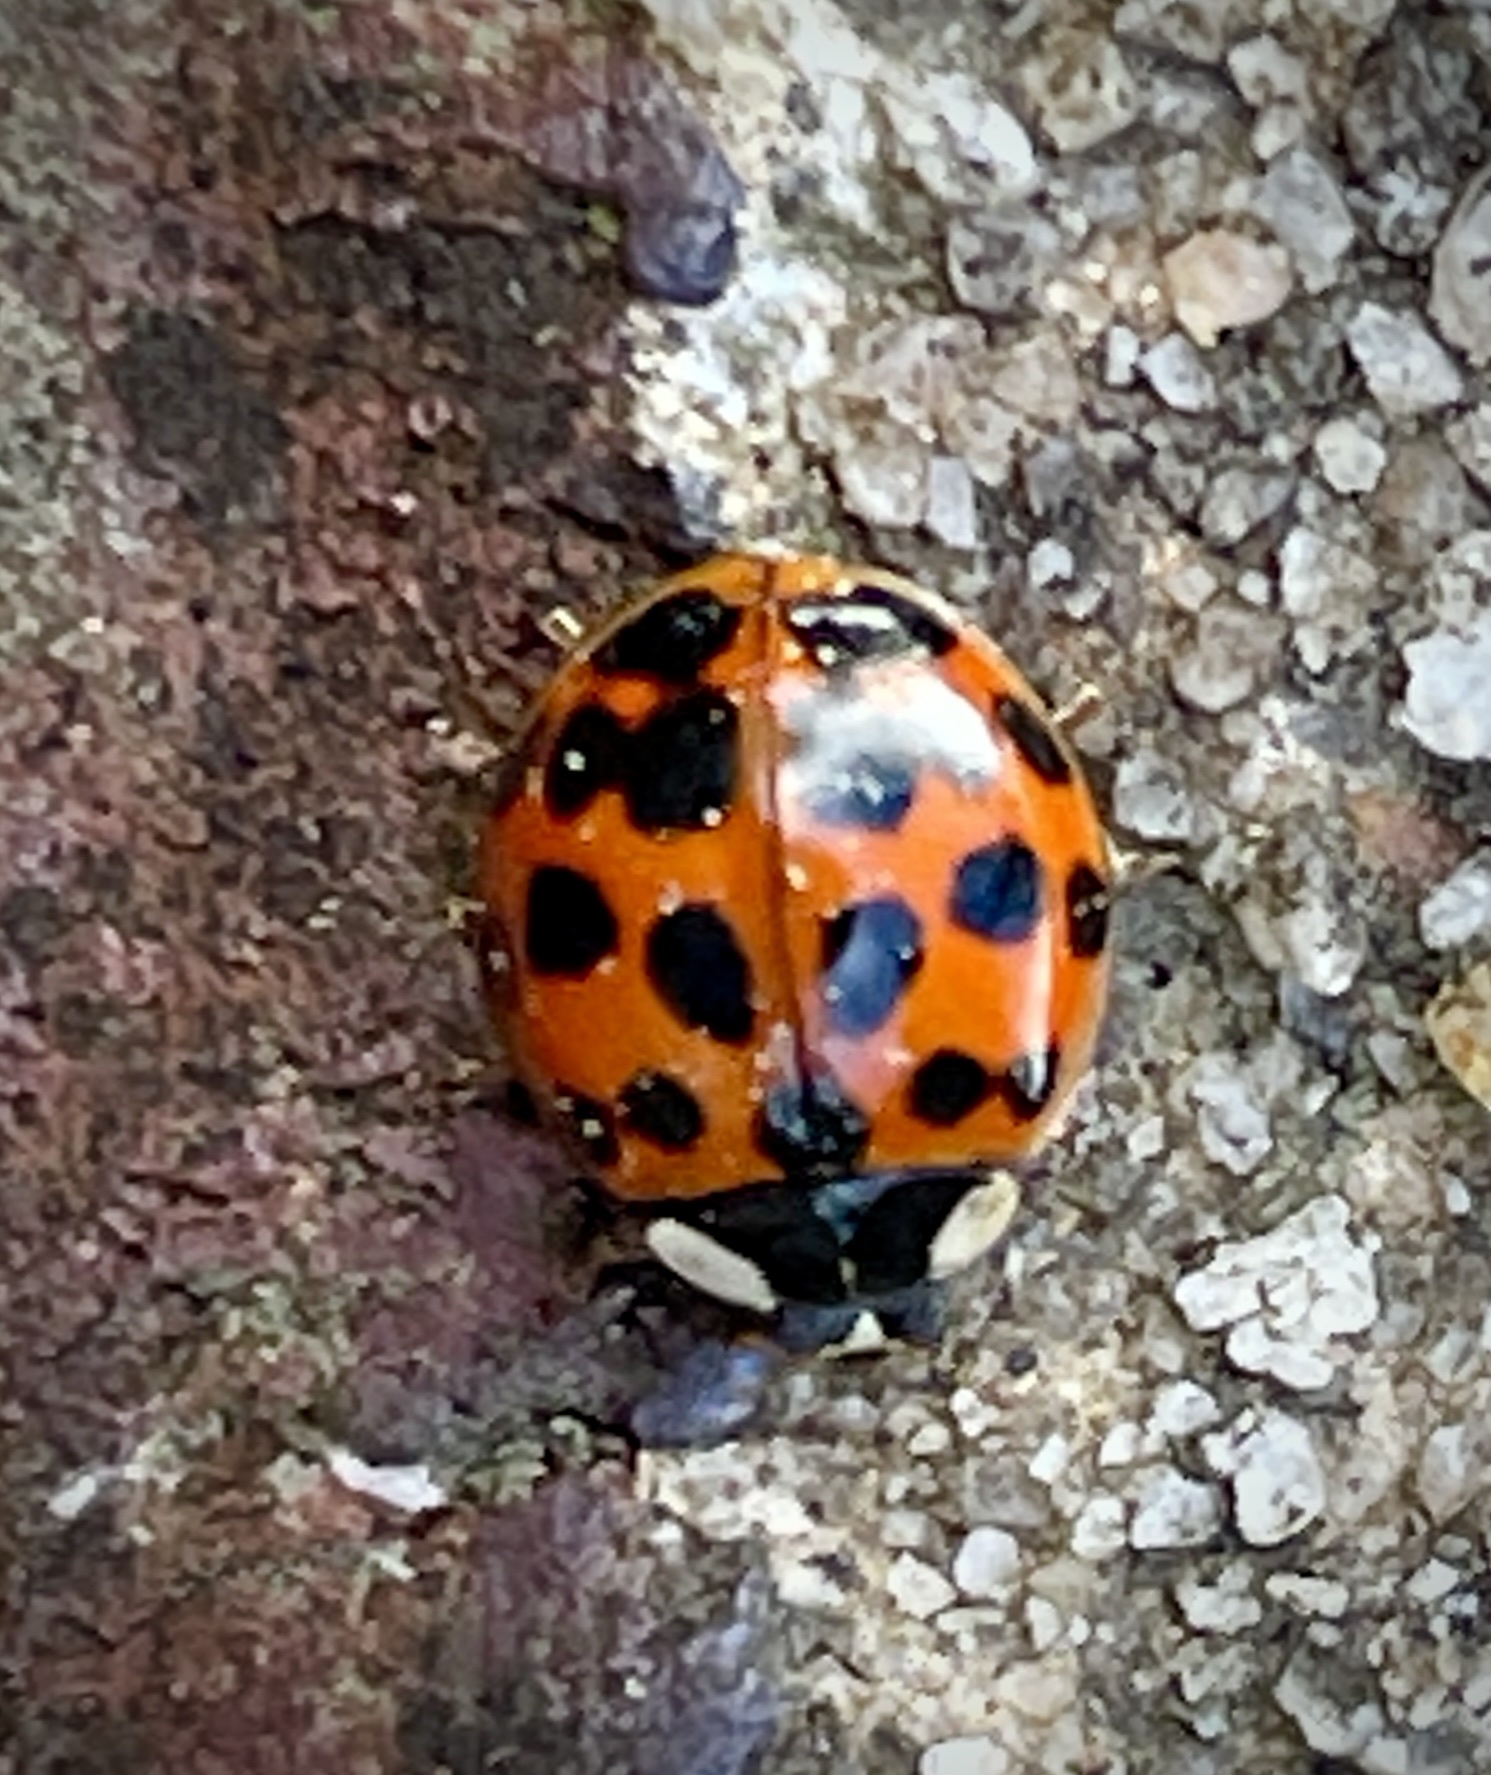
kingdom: Animalia
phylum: Arthropoda
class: Insecta
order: Coleoptera
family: Coccinellidae
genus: Harmonia
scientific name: Harmonia axyridis
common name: Harlequin ladybird
